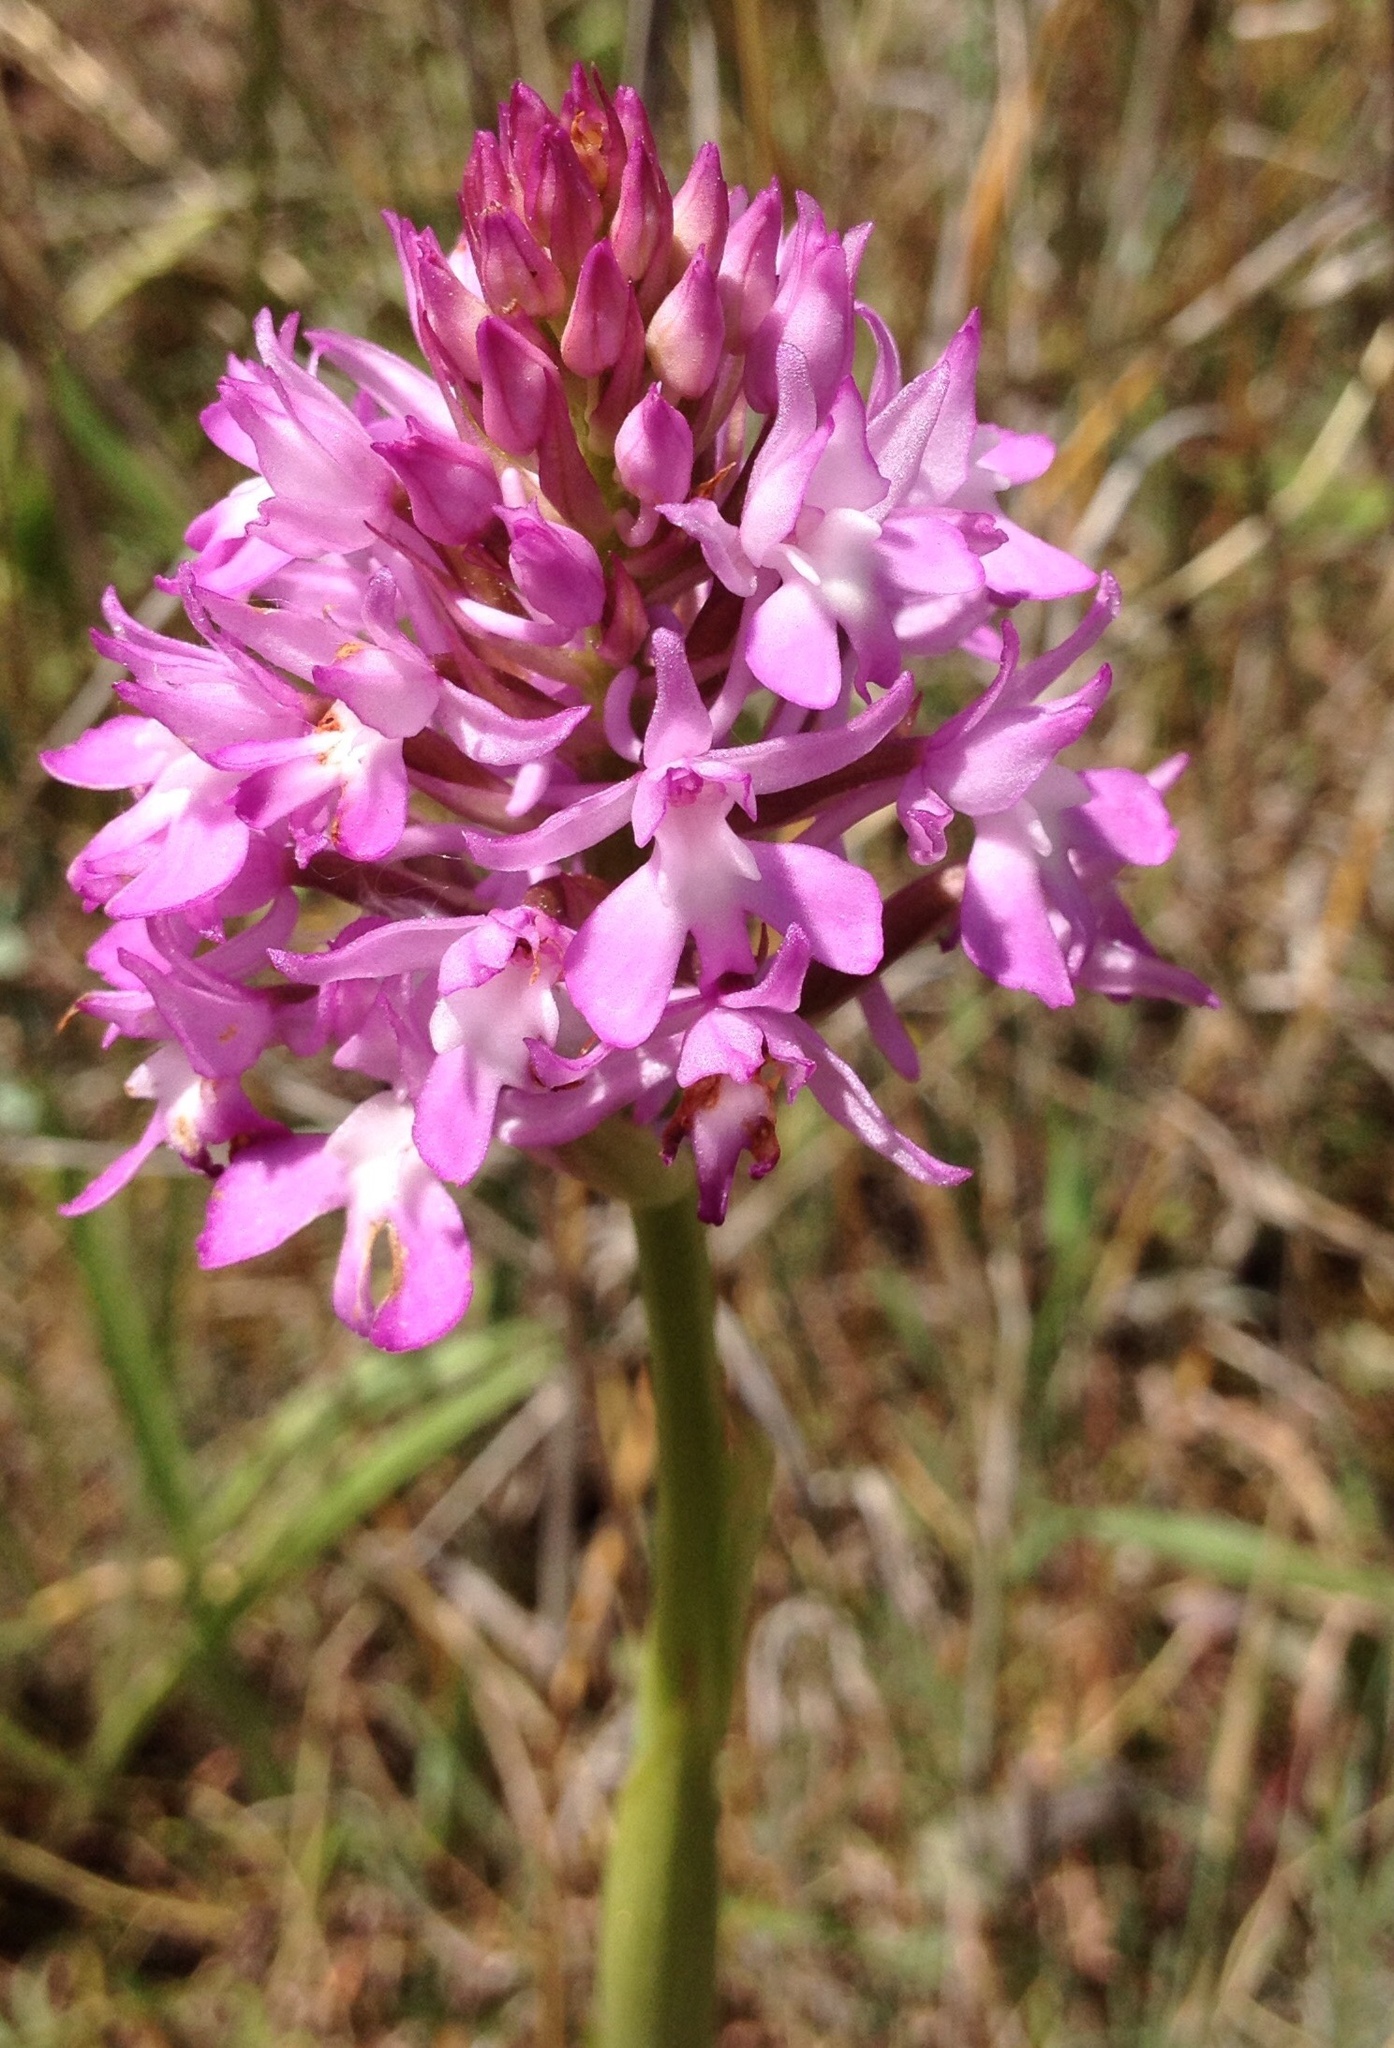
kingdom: Plantae
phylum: Tracheophyta
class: Liliopsida
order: Asparagales
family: Orchidaceae
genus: Anacamptis
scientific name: Anacamptis pyramidalis
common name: Pyramidal orchid
